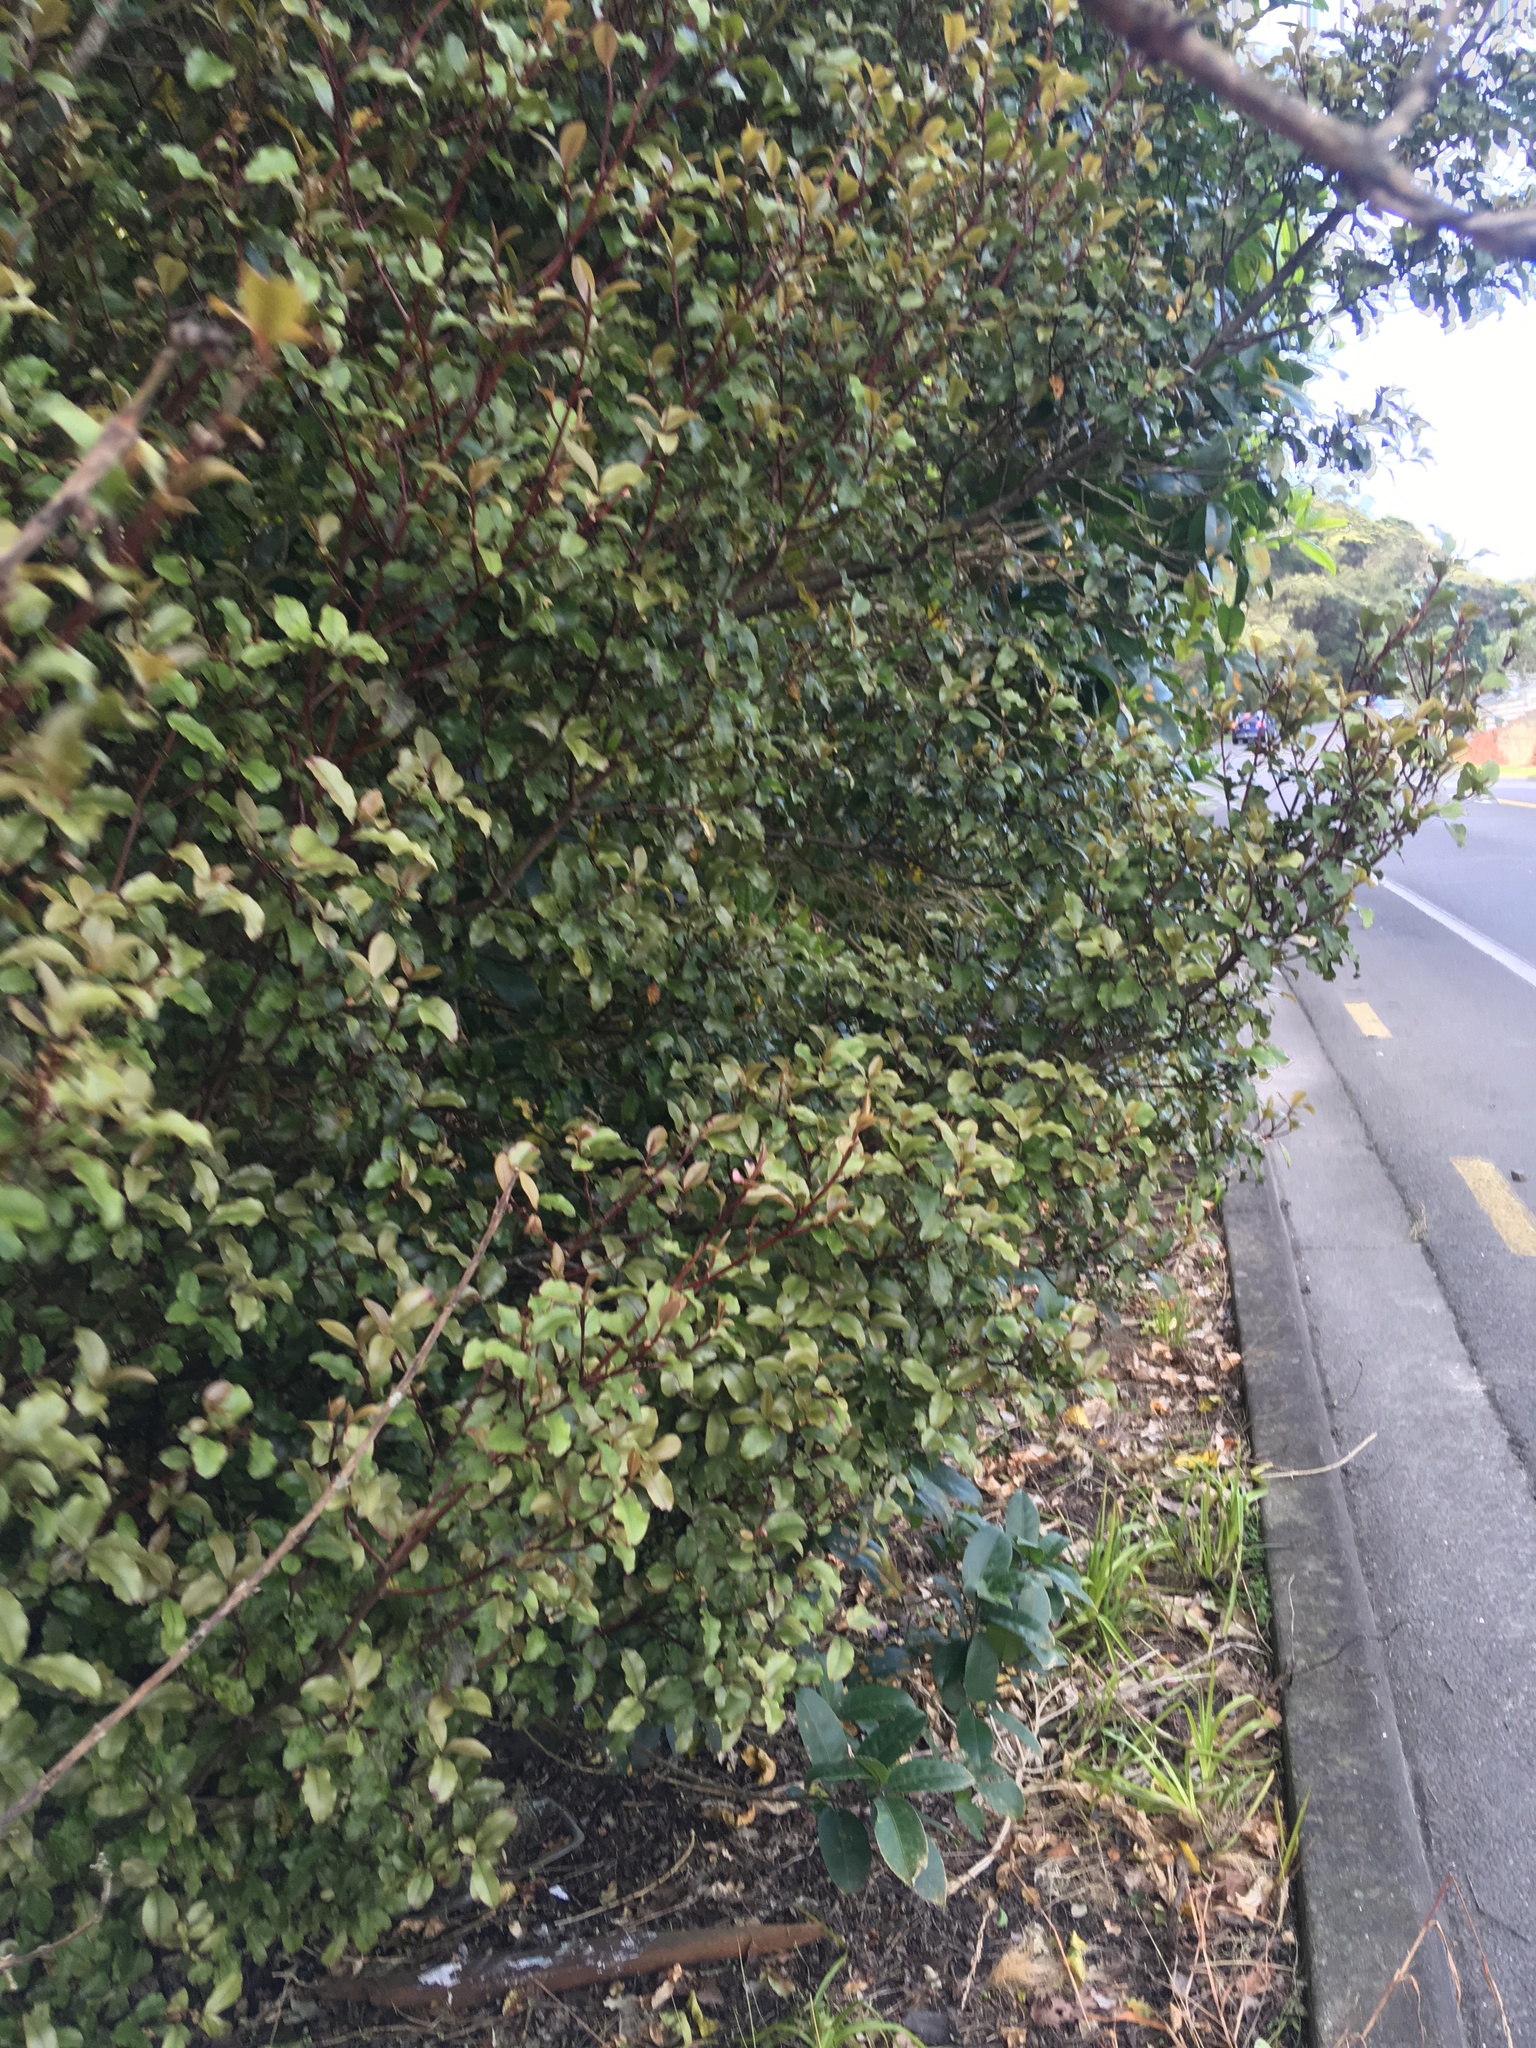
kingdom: Plantae
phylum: Tracheophyta
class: Magnoliopsida
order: Ericales
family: Primulaceae
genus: Myrsine
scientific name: Myrsine australis
